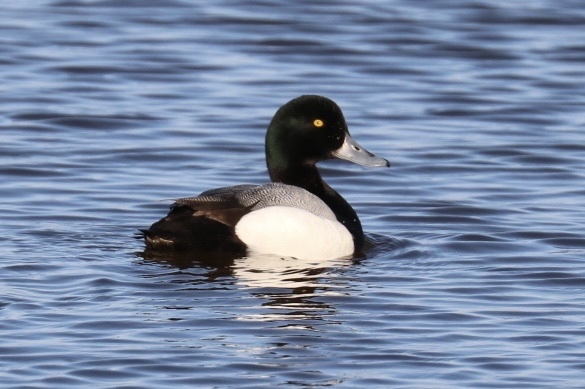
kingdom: Animalia
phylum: Chordata
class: Aves
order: Anseriformes
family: Anatidae
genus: Aythya
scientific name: Aythya marila
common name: Greater scaup
